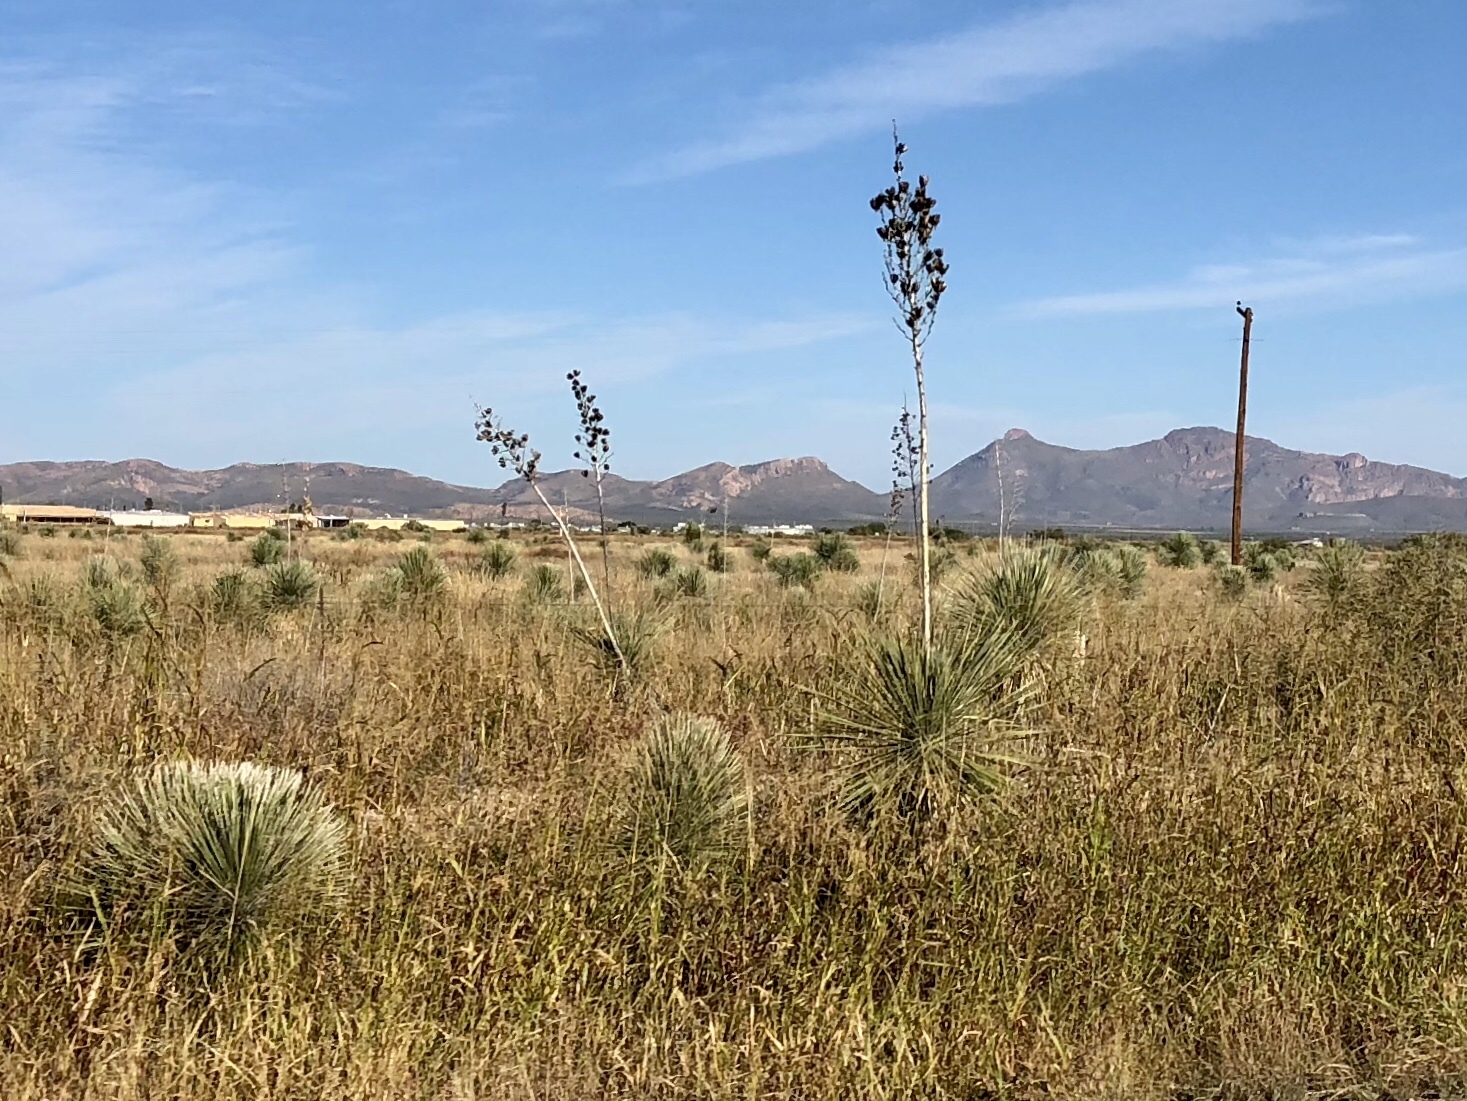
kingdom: Plantae
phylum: Tracheophyta
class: Liliopsida
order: Asparagales
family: Asparagaceae
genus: Yucca
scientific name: Yucca elata
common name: Palmella
